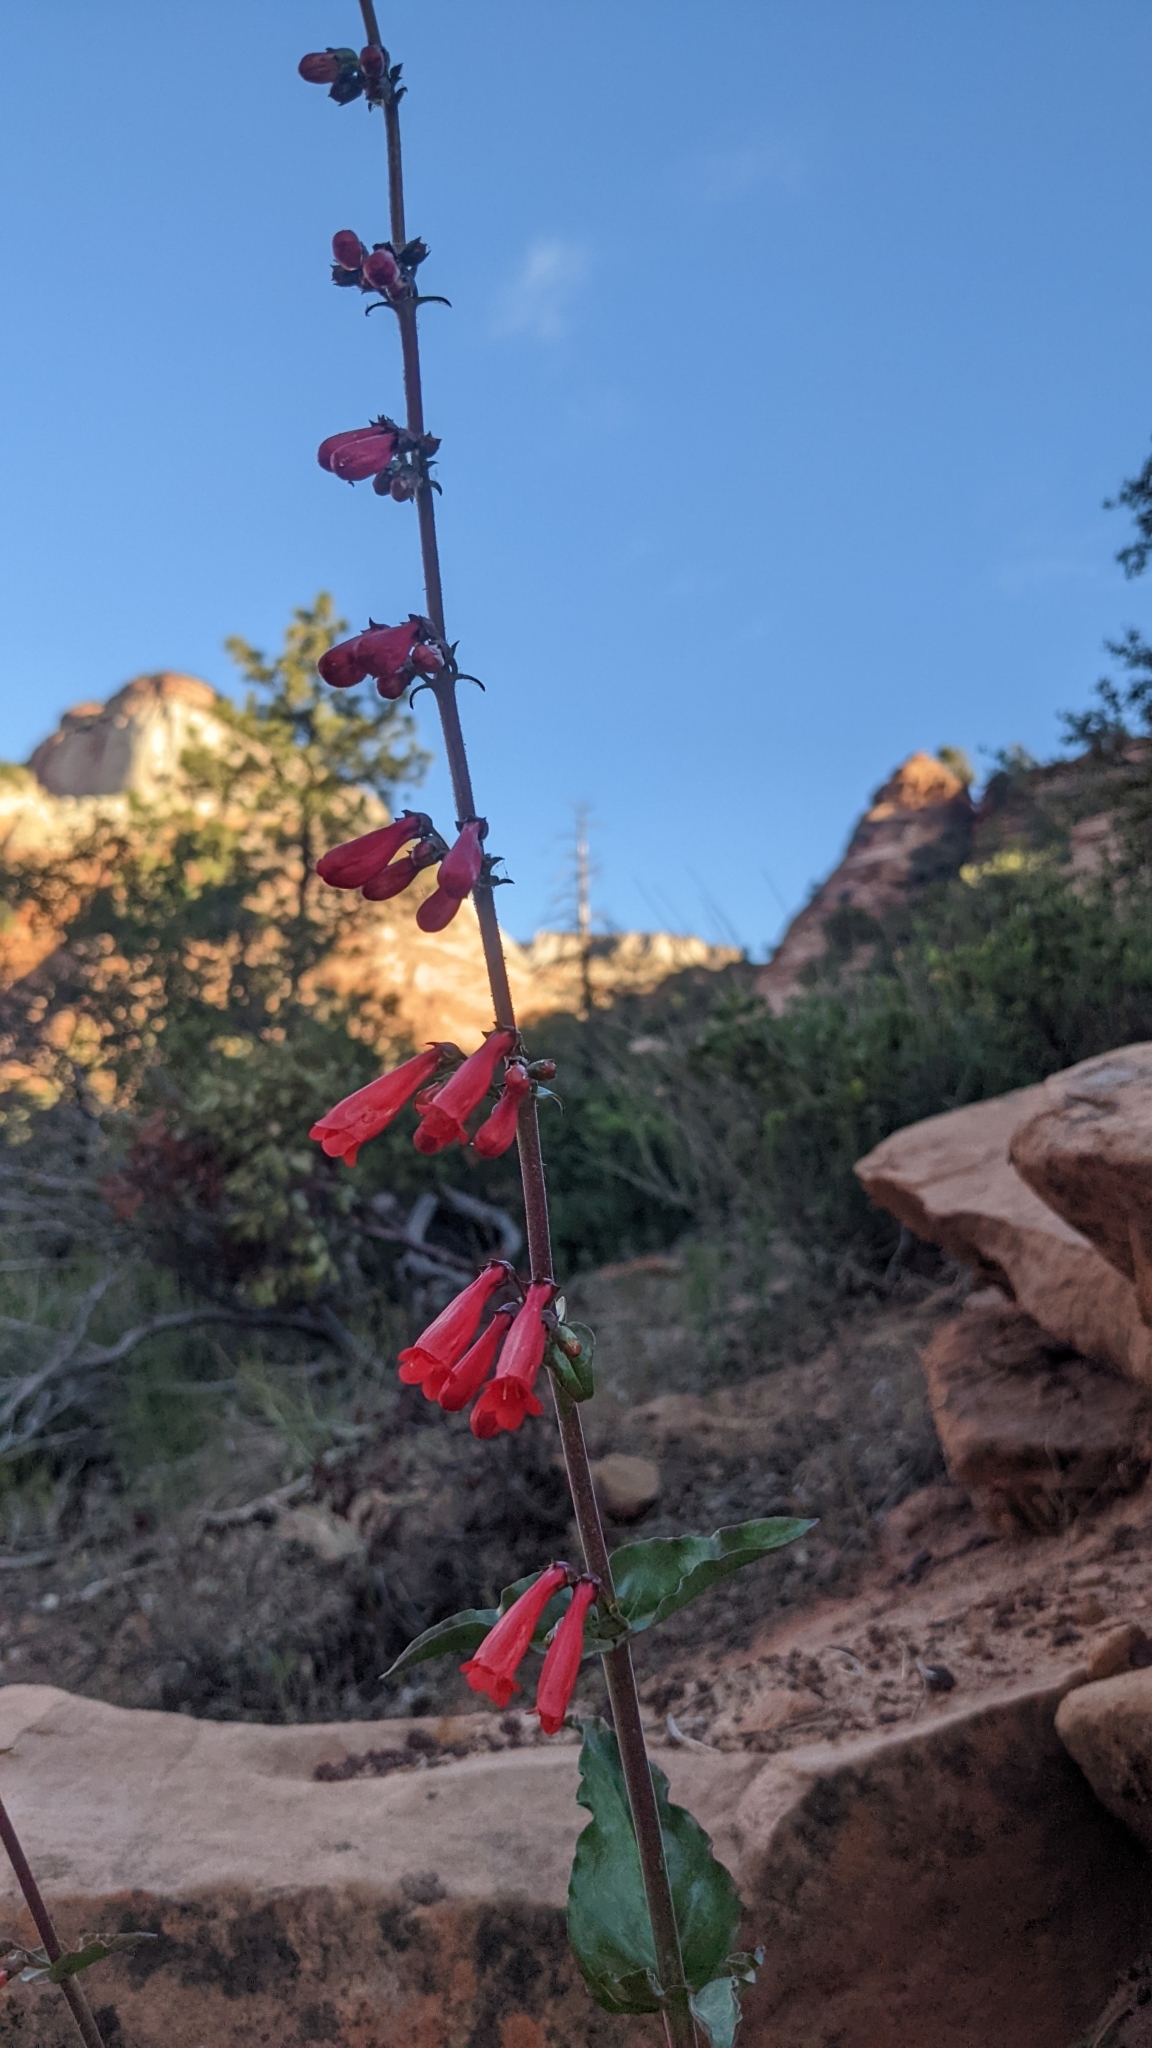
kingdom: Plantae
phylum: Tracheophyta
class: Magnoliopsida
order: Lamiales
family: Plantaginaceae
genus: Penstemon
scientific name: Penstemon eatonii
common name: Eaton's penstemon
